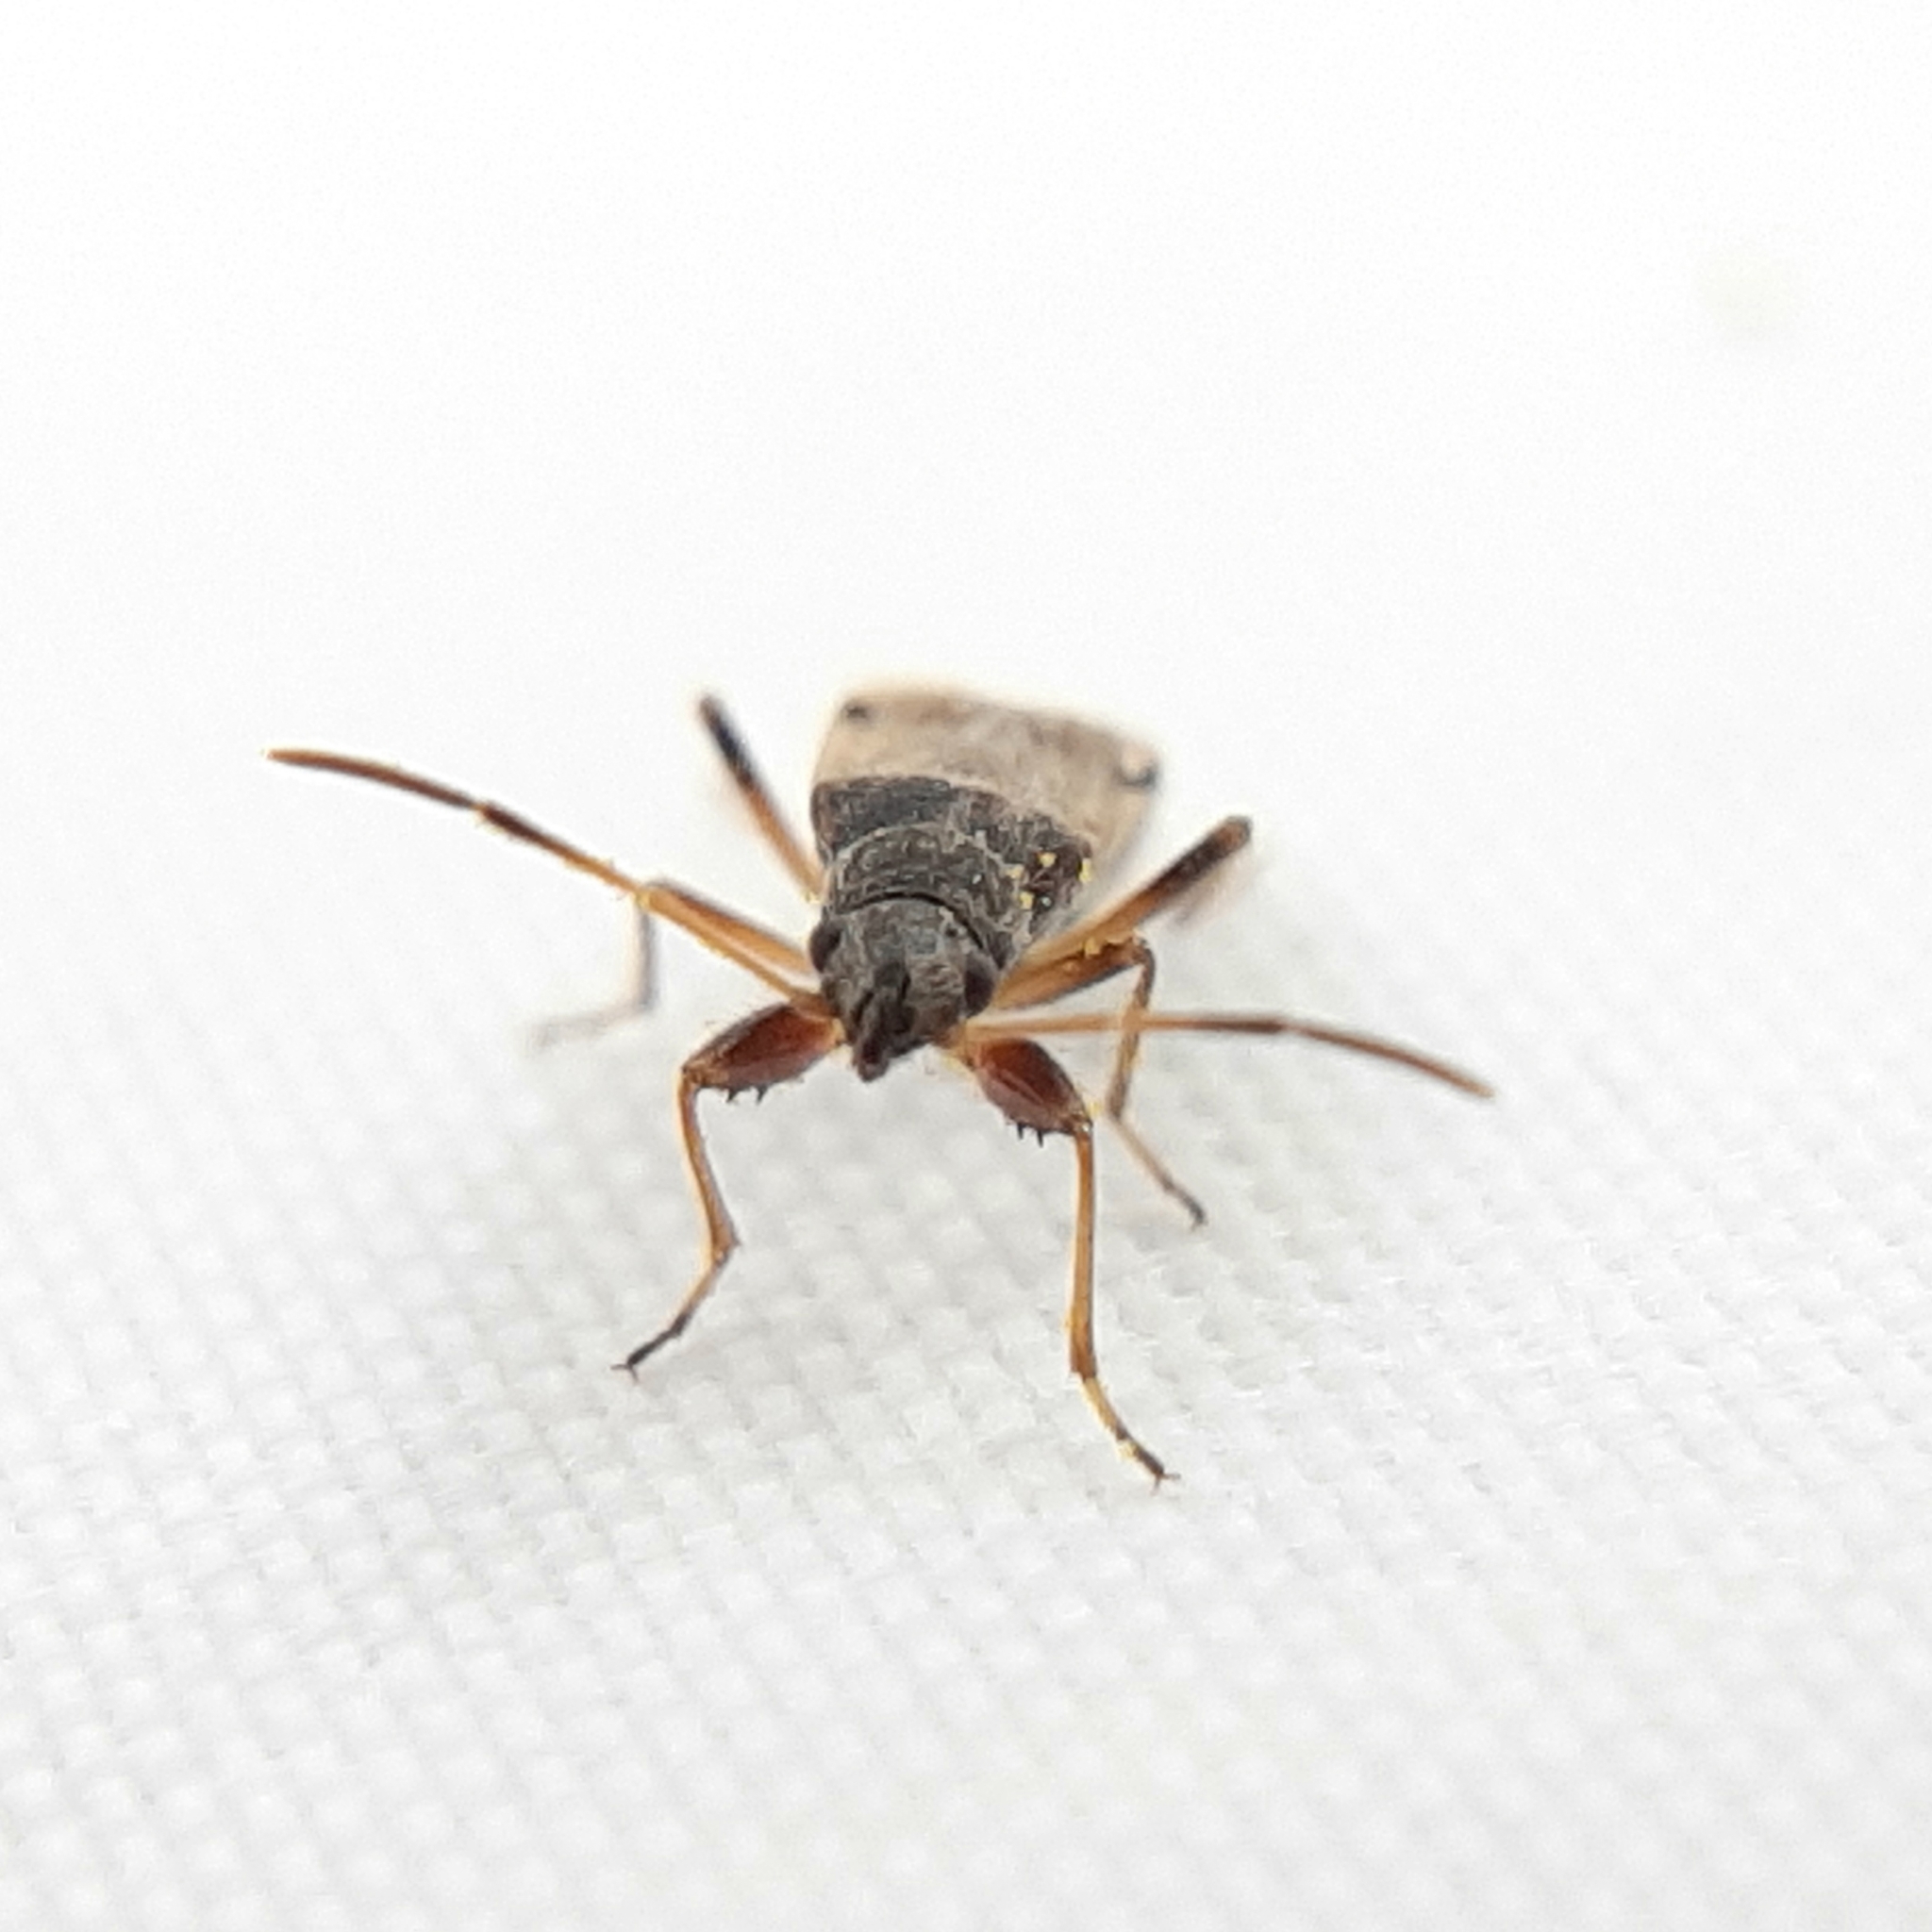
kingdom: Animalia
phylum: Arthropoda
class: Insecta
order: Hemiptera
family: Rhyparochromidae
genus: Ligyrocoris
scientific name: Ligyrocoris diffusus
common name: Diffused seed bug
